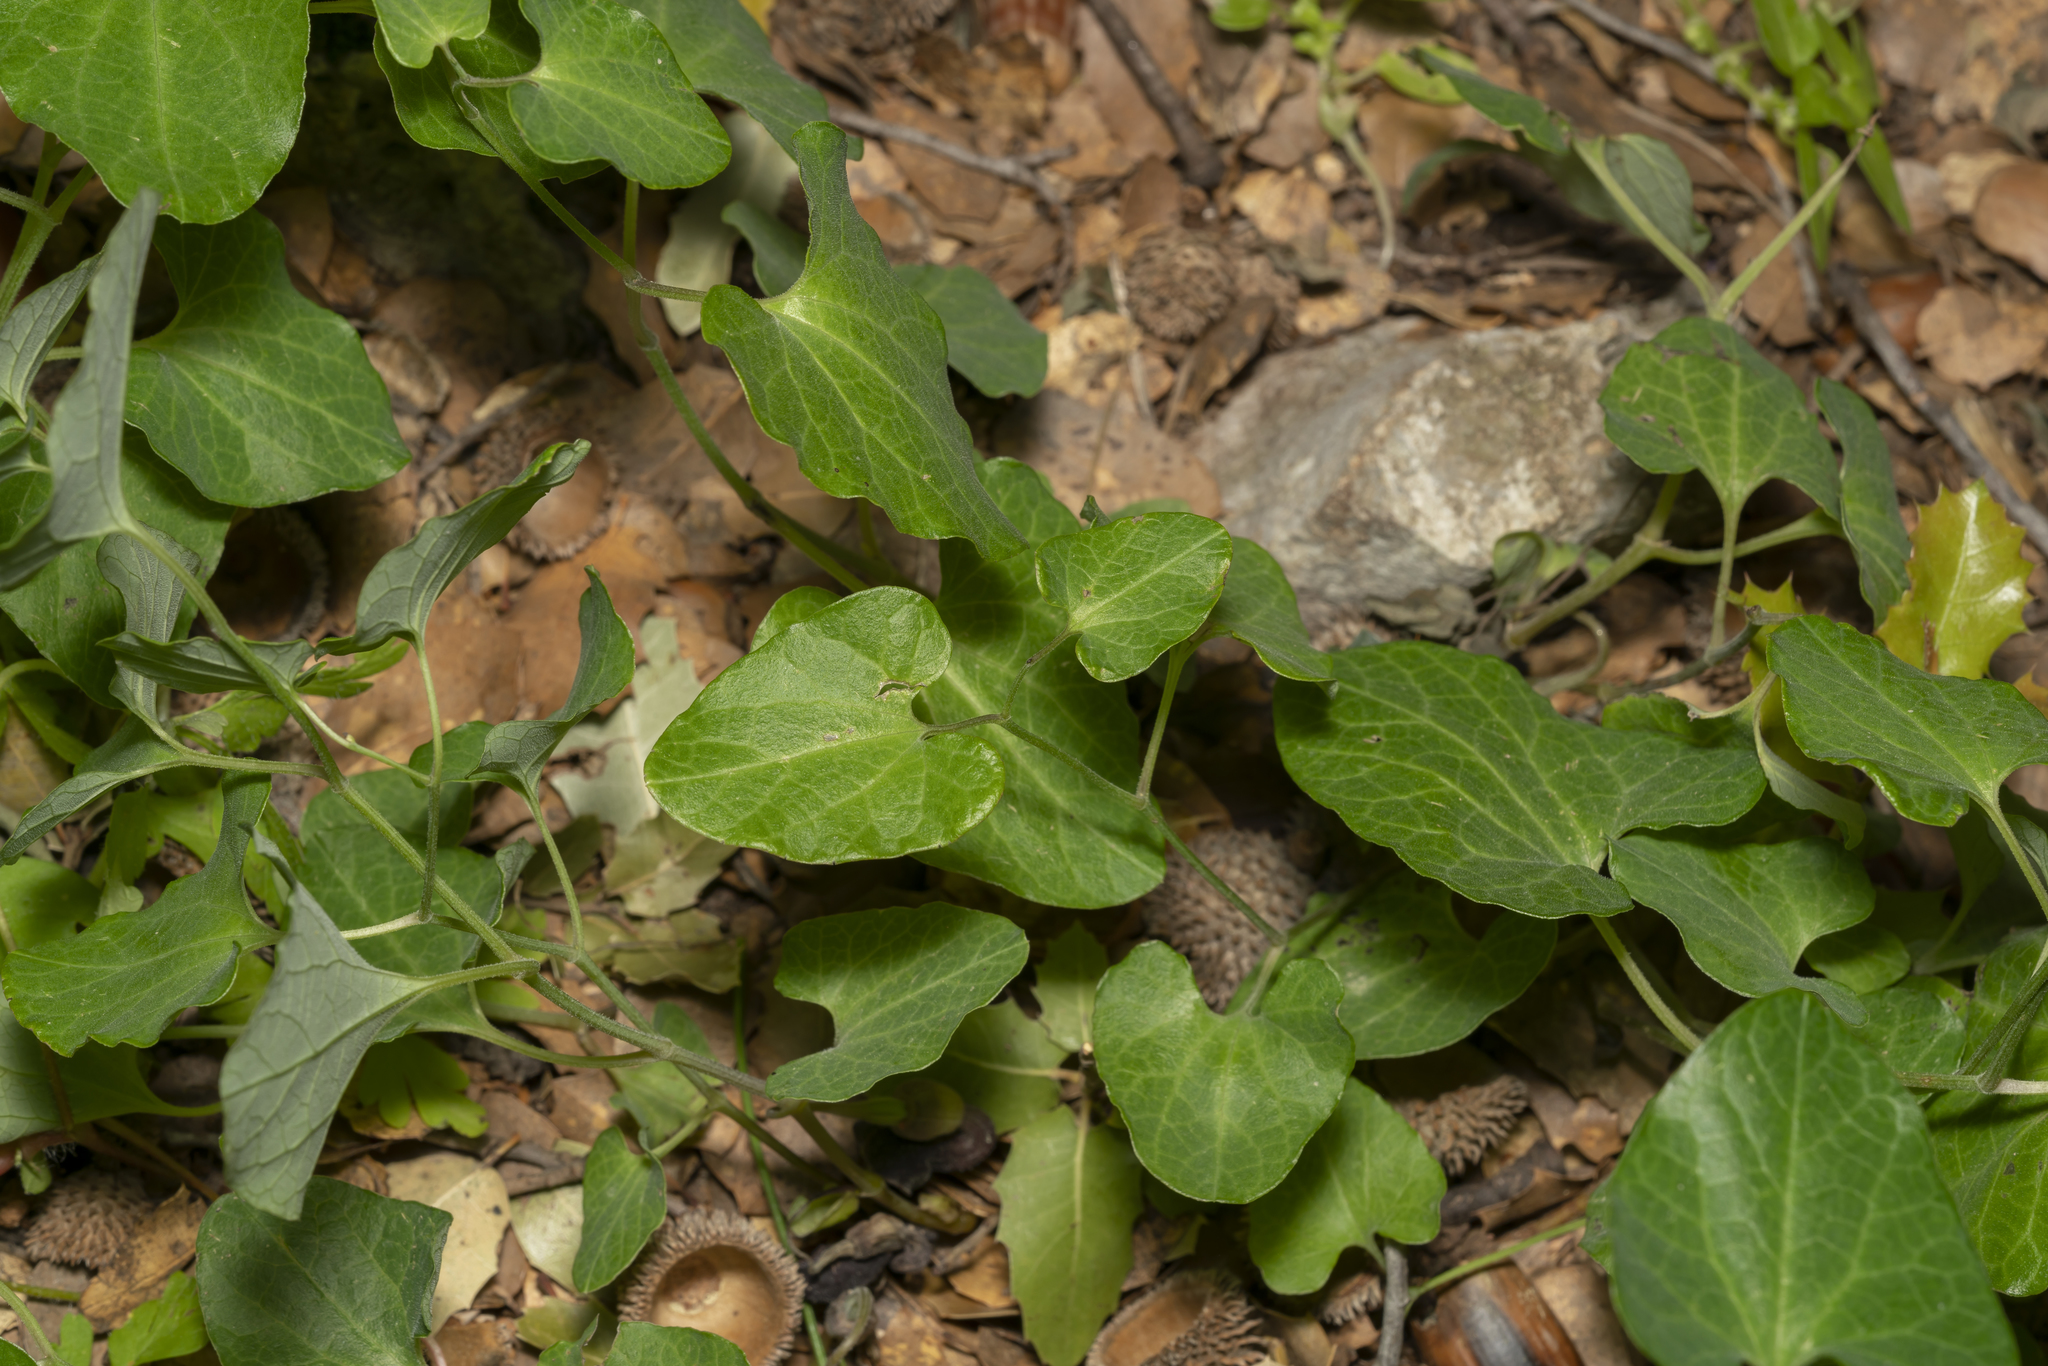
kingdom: Plantae
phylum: Tracheophyta
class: Magnoliopsida
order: Piperales
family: Aristolochiaceae
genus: Aristolochia
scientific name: Aristolochia guichardii
